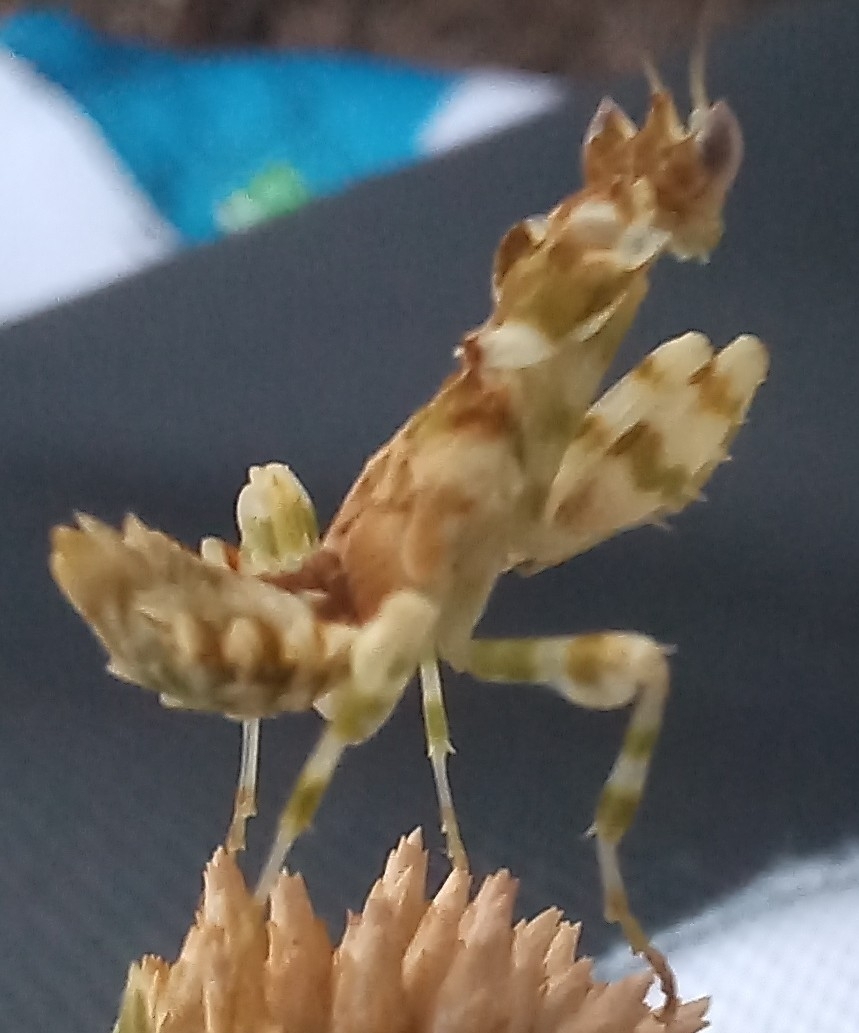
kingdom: Animalia
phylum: Arthropoda
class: Insecta
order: Mantodea
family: Galinthiadidae
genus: Harpagomantis
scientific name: Harpagomantis tricolor
